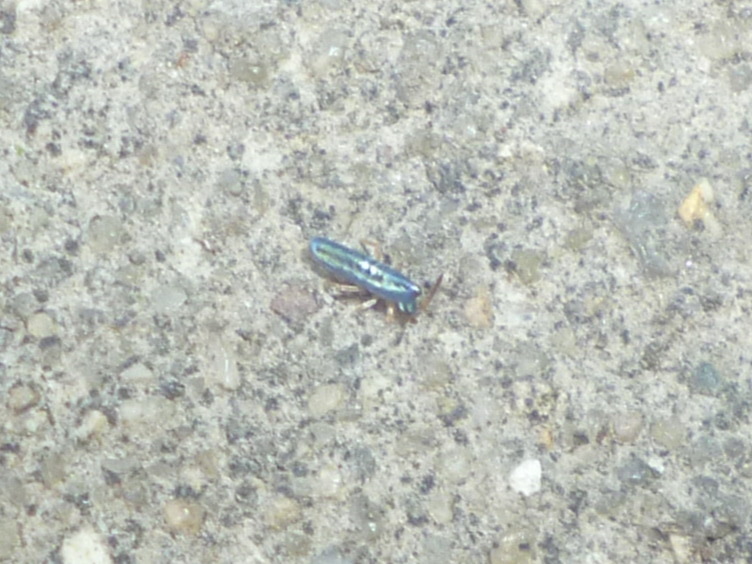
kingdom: Animalia
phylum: Arthropoda
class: Collembola
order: Entomobryomorpha
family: Entomobryidae
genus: Lepidocyrtus
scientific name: Lepidocyrtus paradoxus
